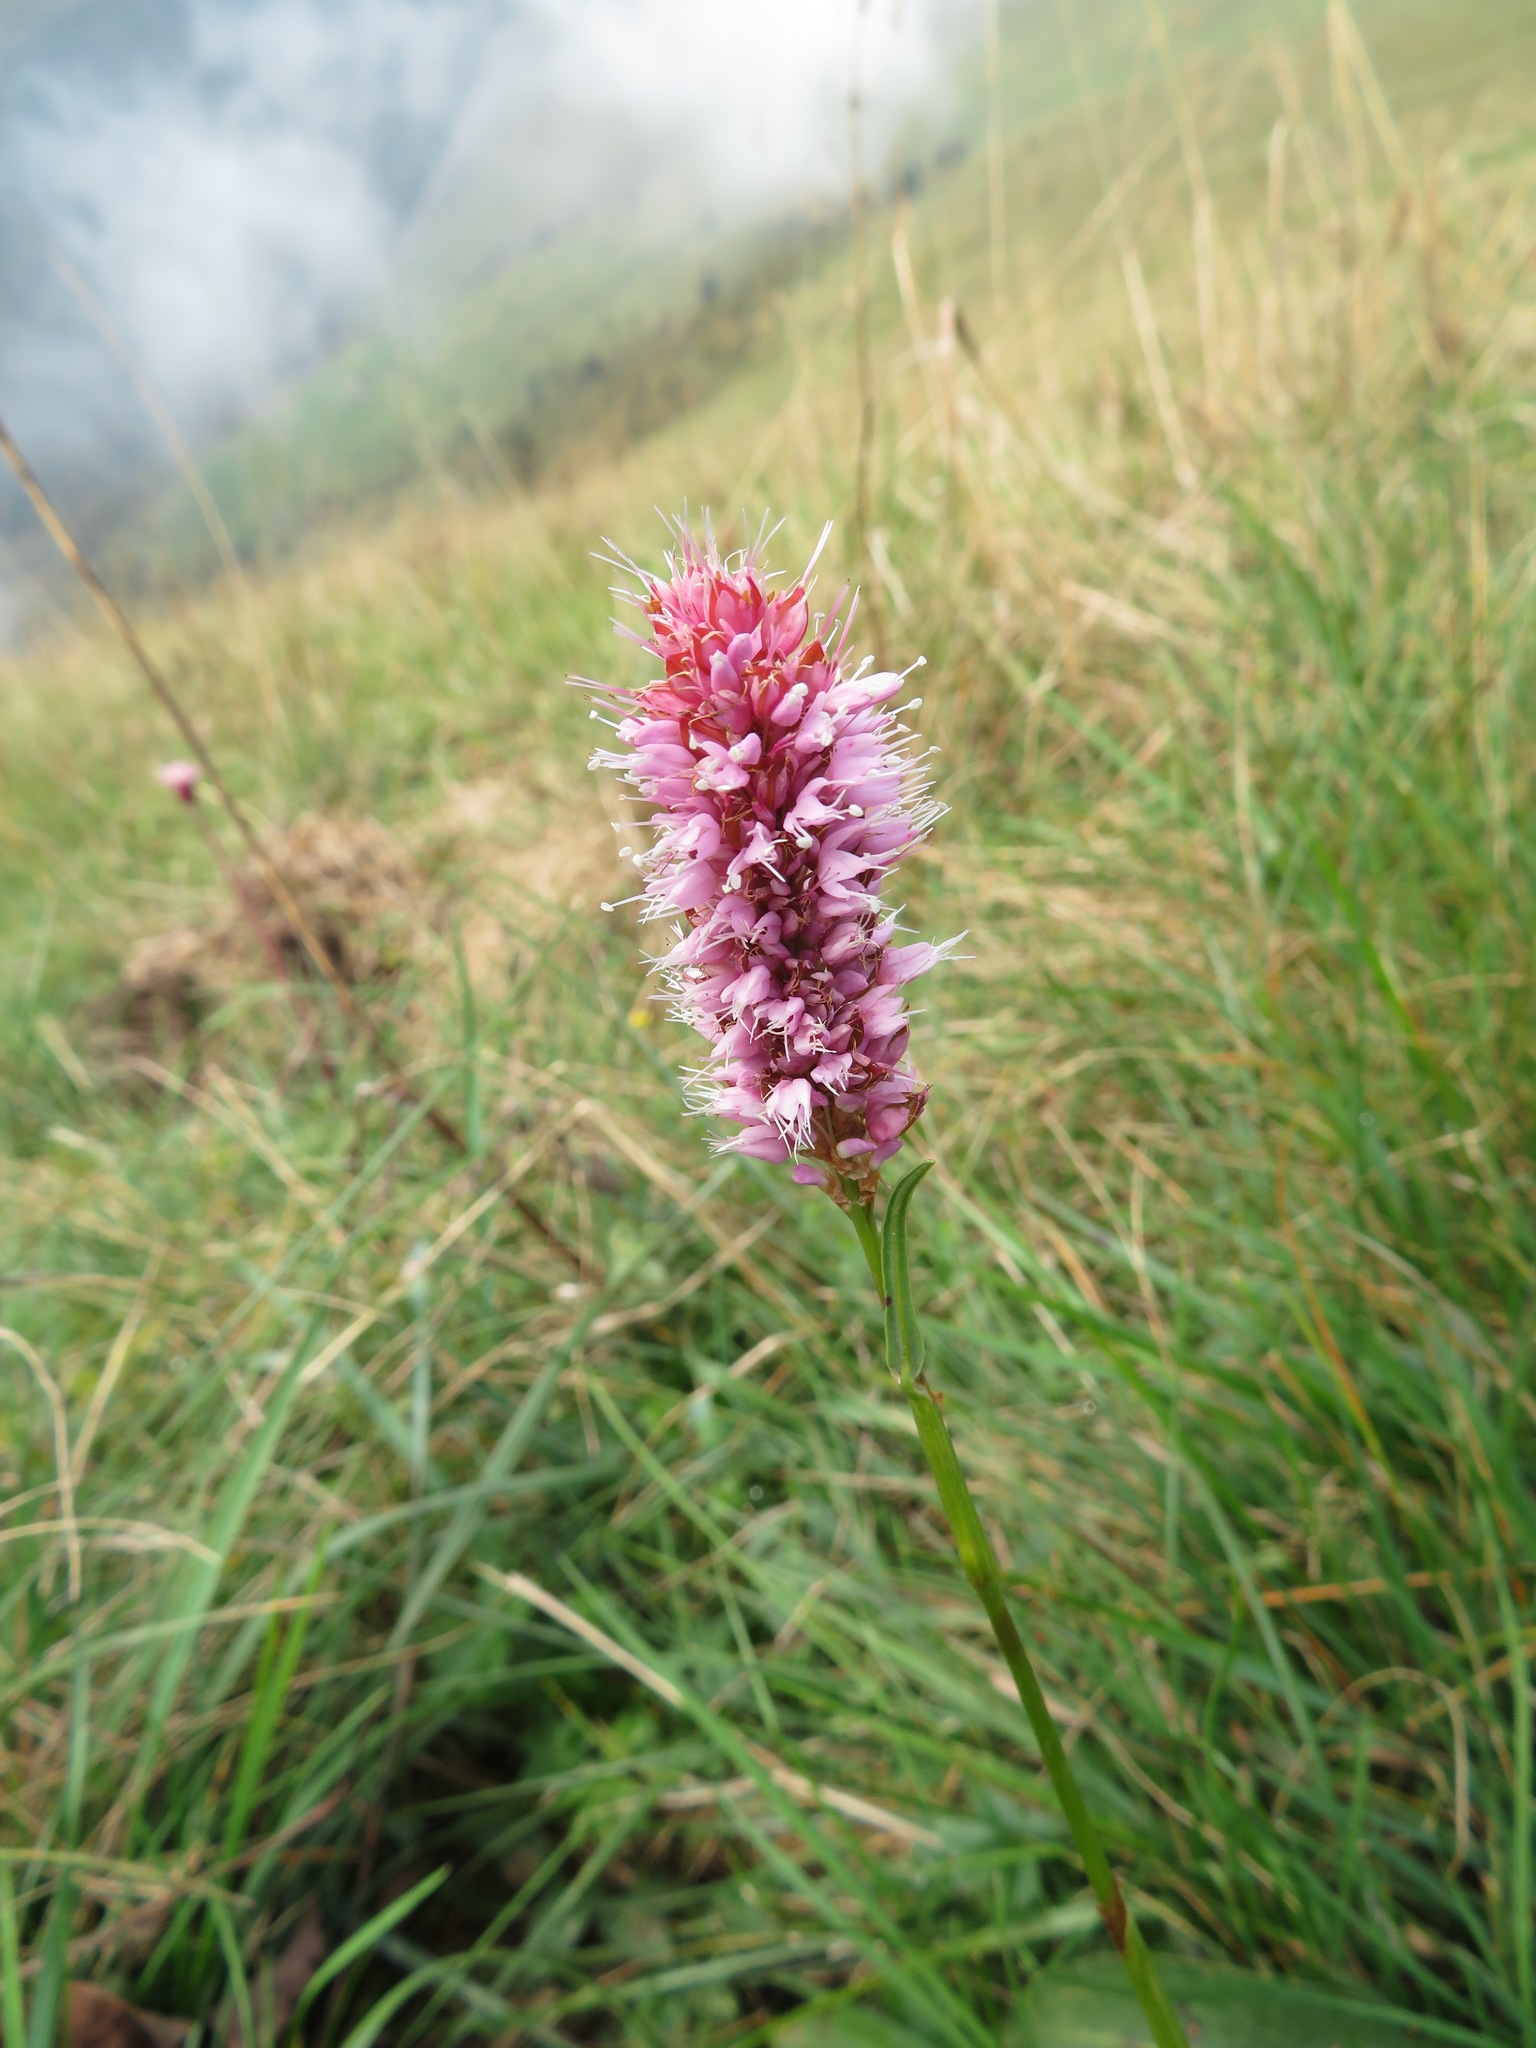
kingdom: Plantae
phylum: Tracheophyta
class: Magnoliopsida
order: Caryophyllales
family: Polygonaceae
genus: Bistorta
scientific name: Bistorta officinalis
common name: Common bistort
